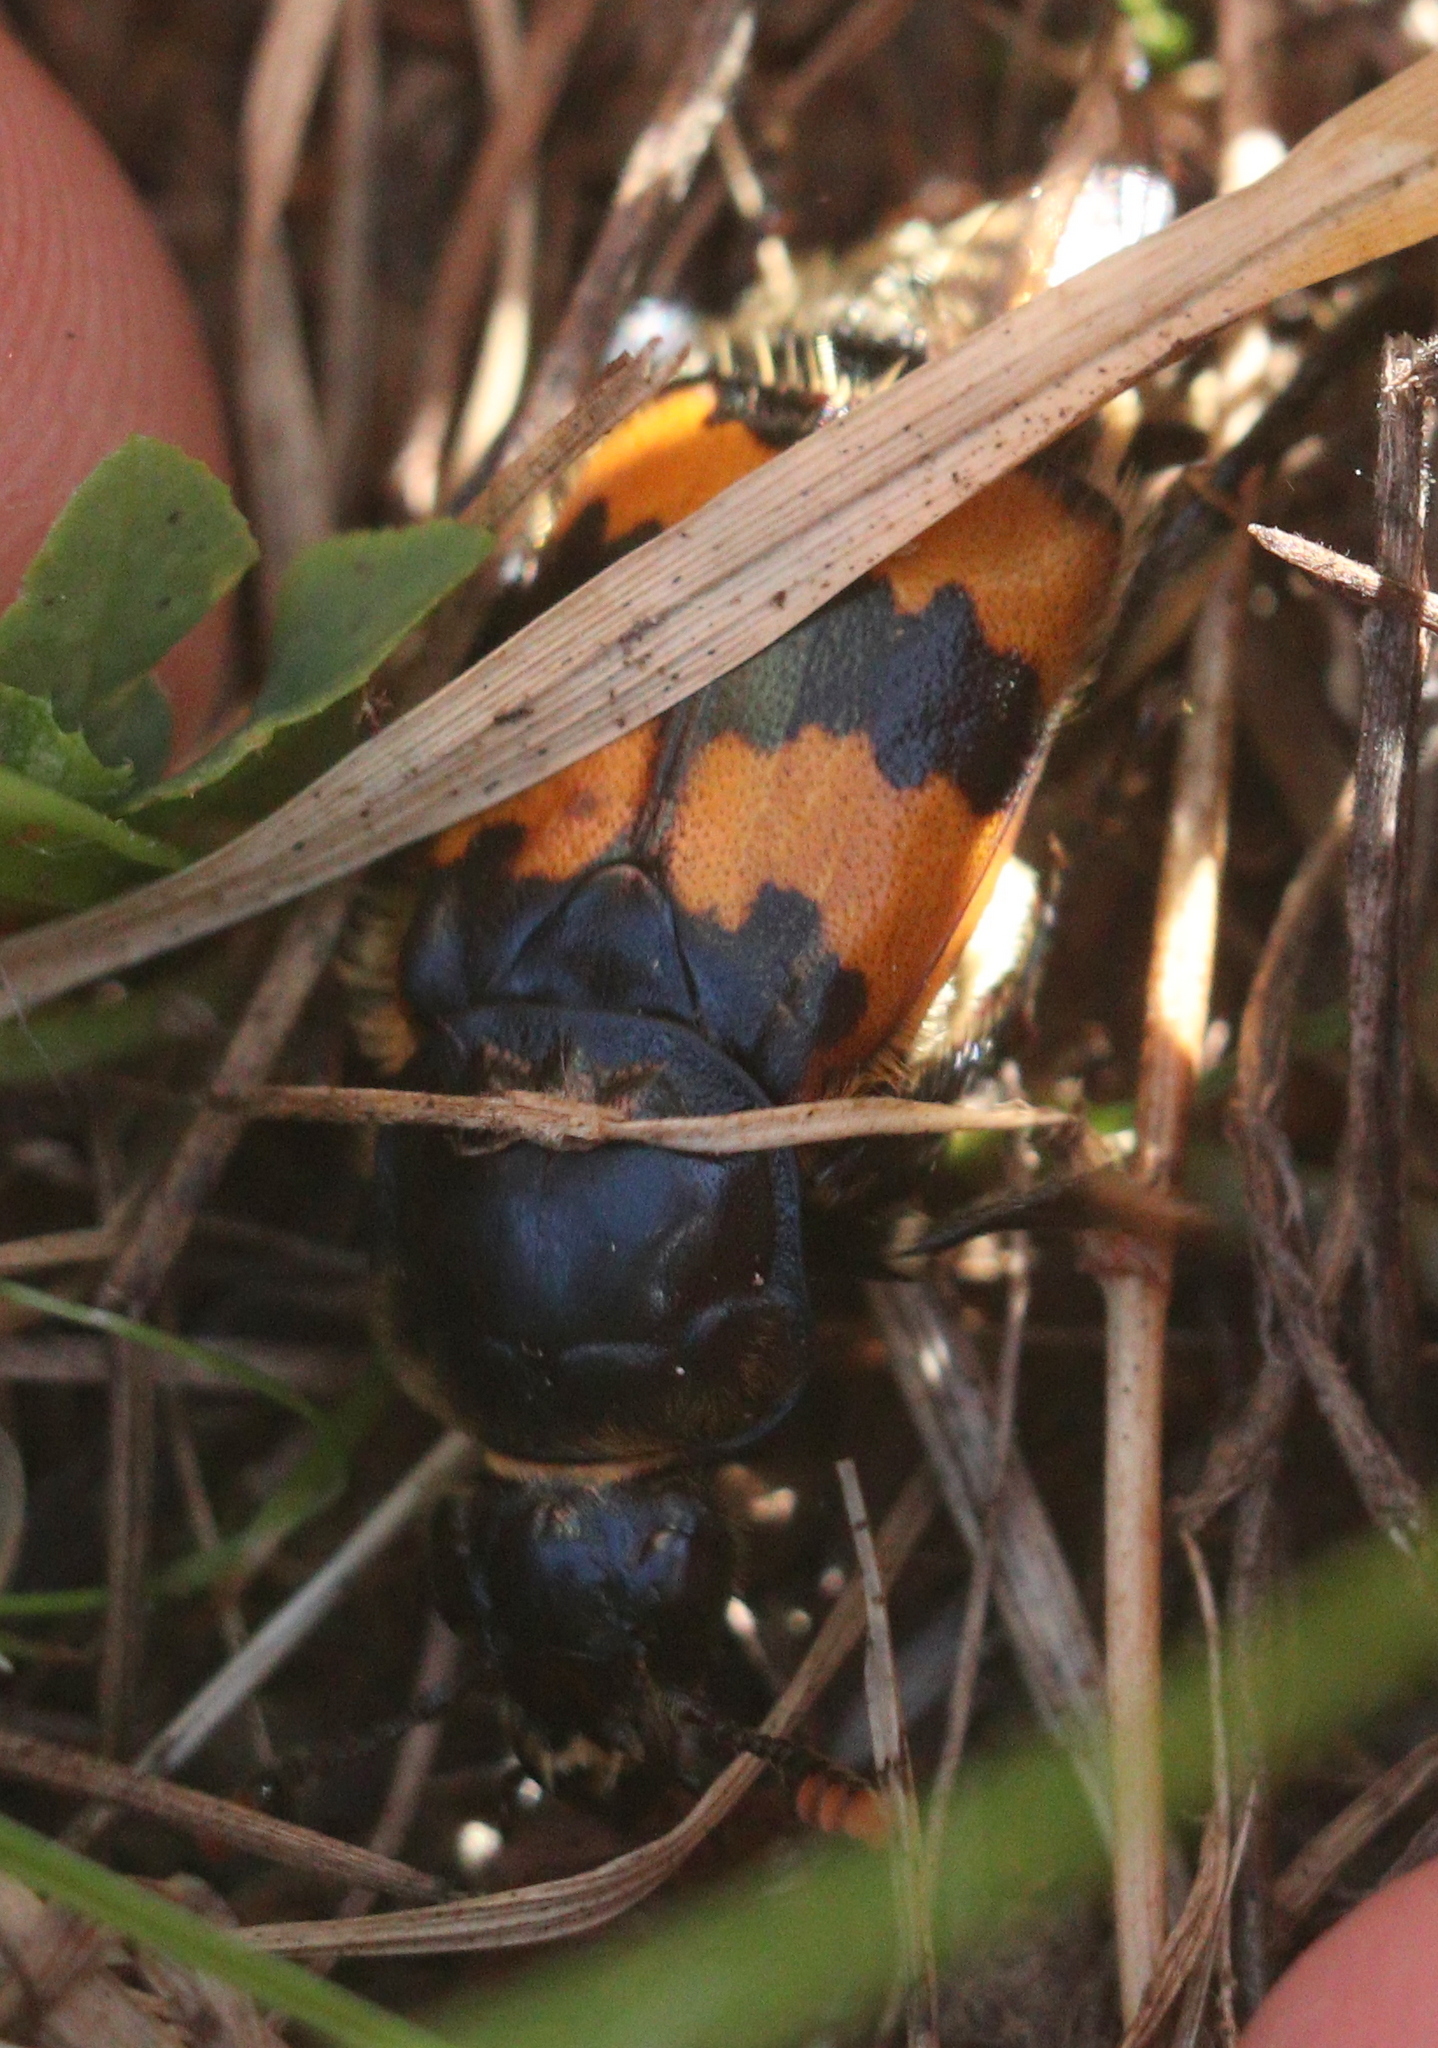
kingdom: Animalia
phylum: Arthropoda
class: Insecta
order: Coleoptera
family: Staphylinidae
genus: Nicrophorus
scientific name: Nicrophorus vespillo
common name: Common burying beetle
